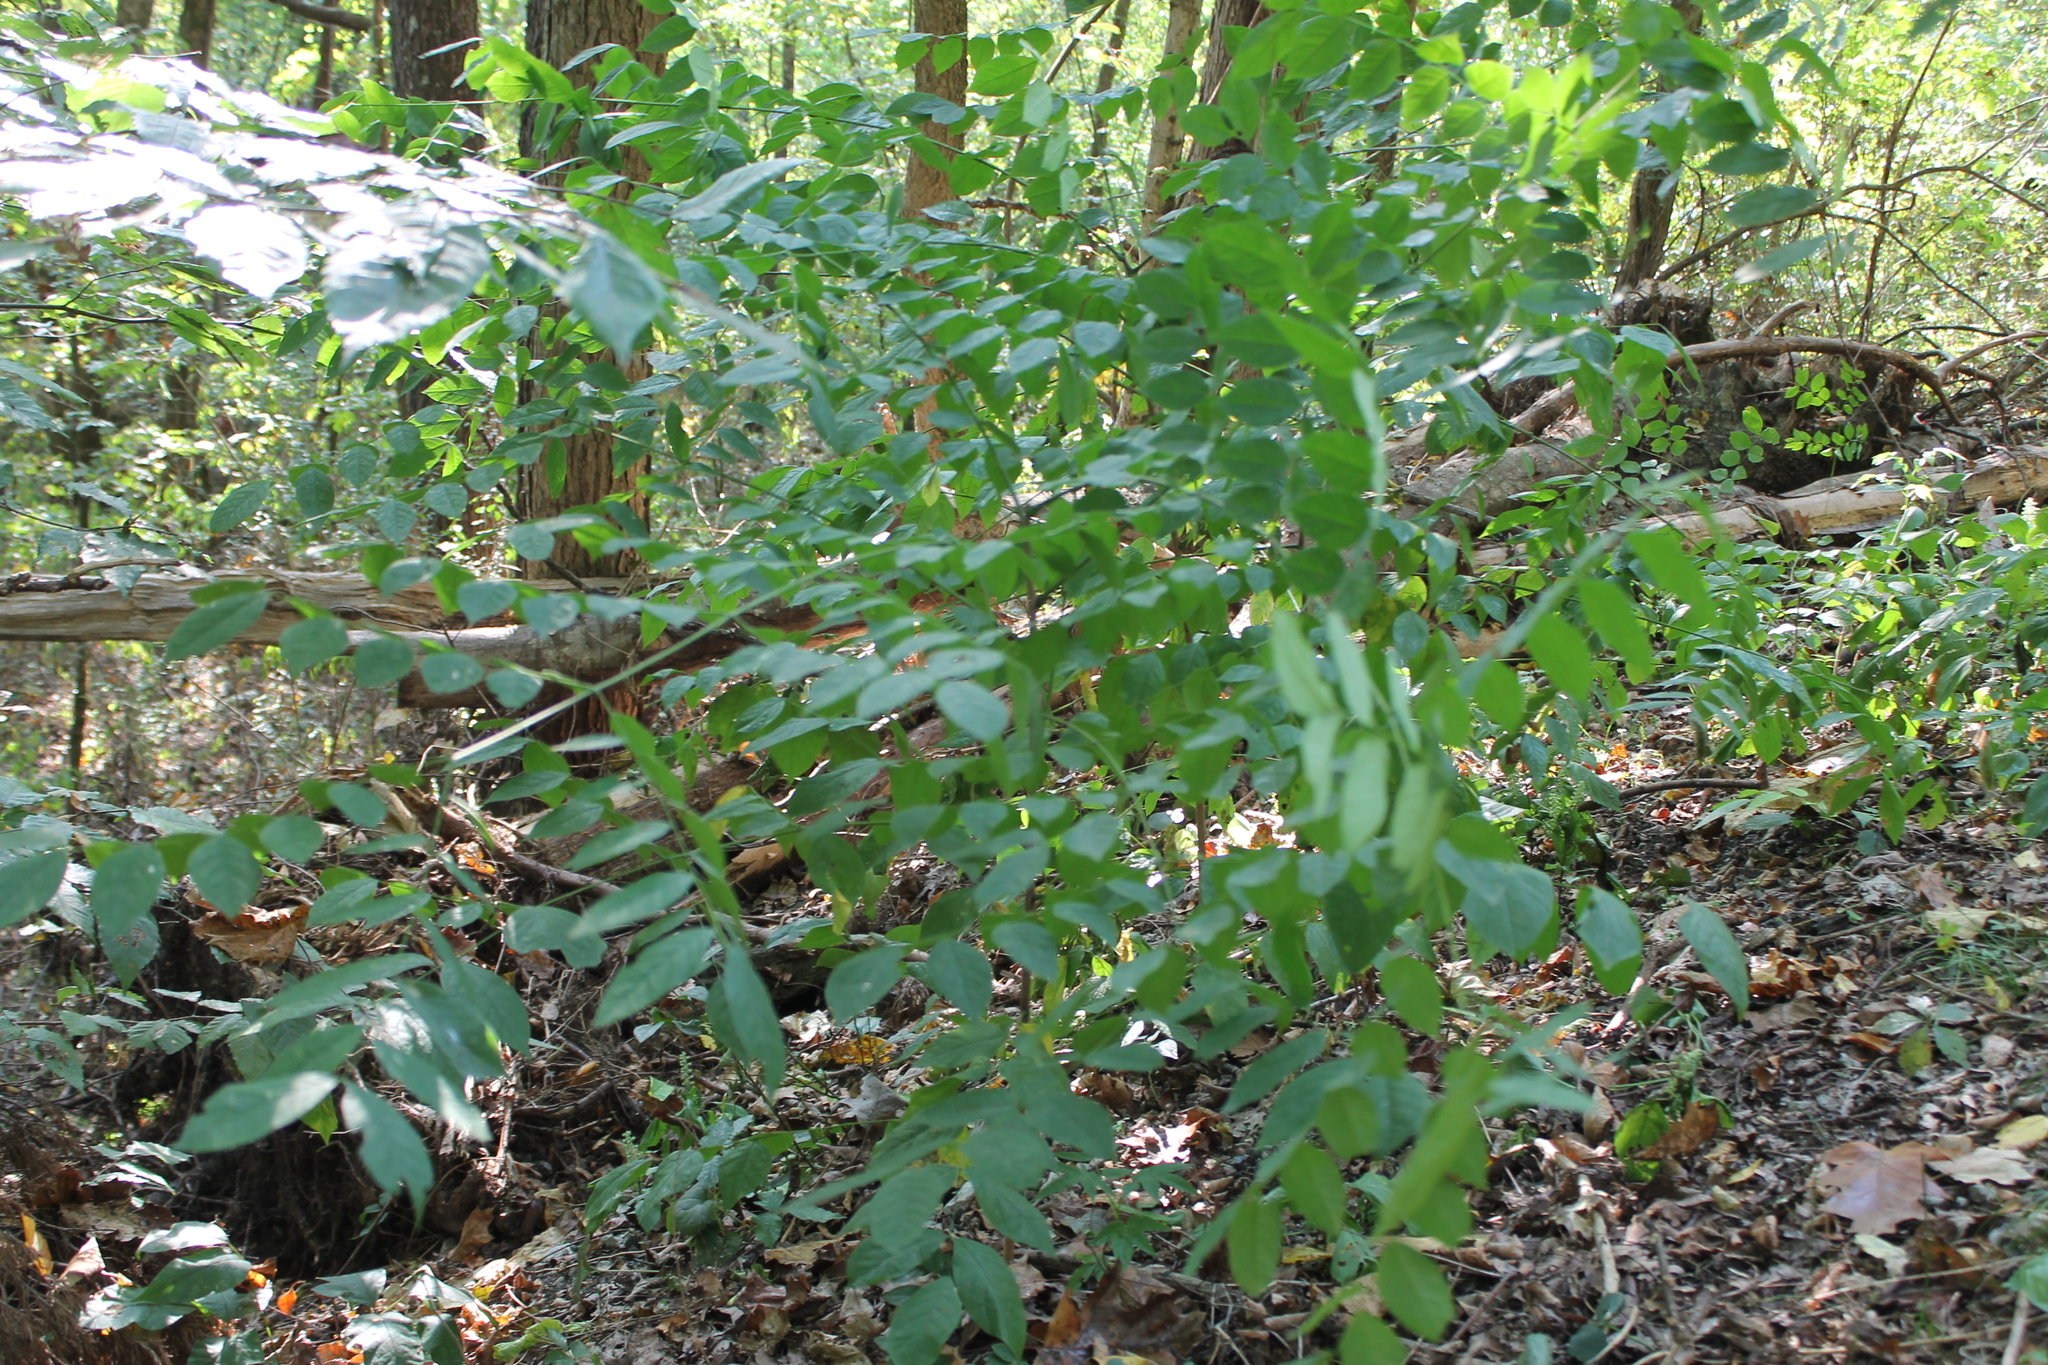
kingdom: Plantae
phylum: Tracheophyta
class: Magnoliopsida
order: Fabales
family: Fabaceae
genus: Gymnocladus
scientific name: Gymnocladus dioicus
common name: Kentucky coffee-tree
